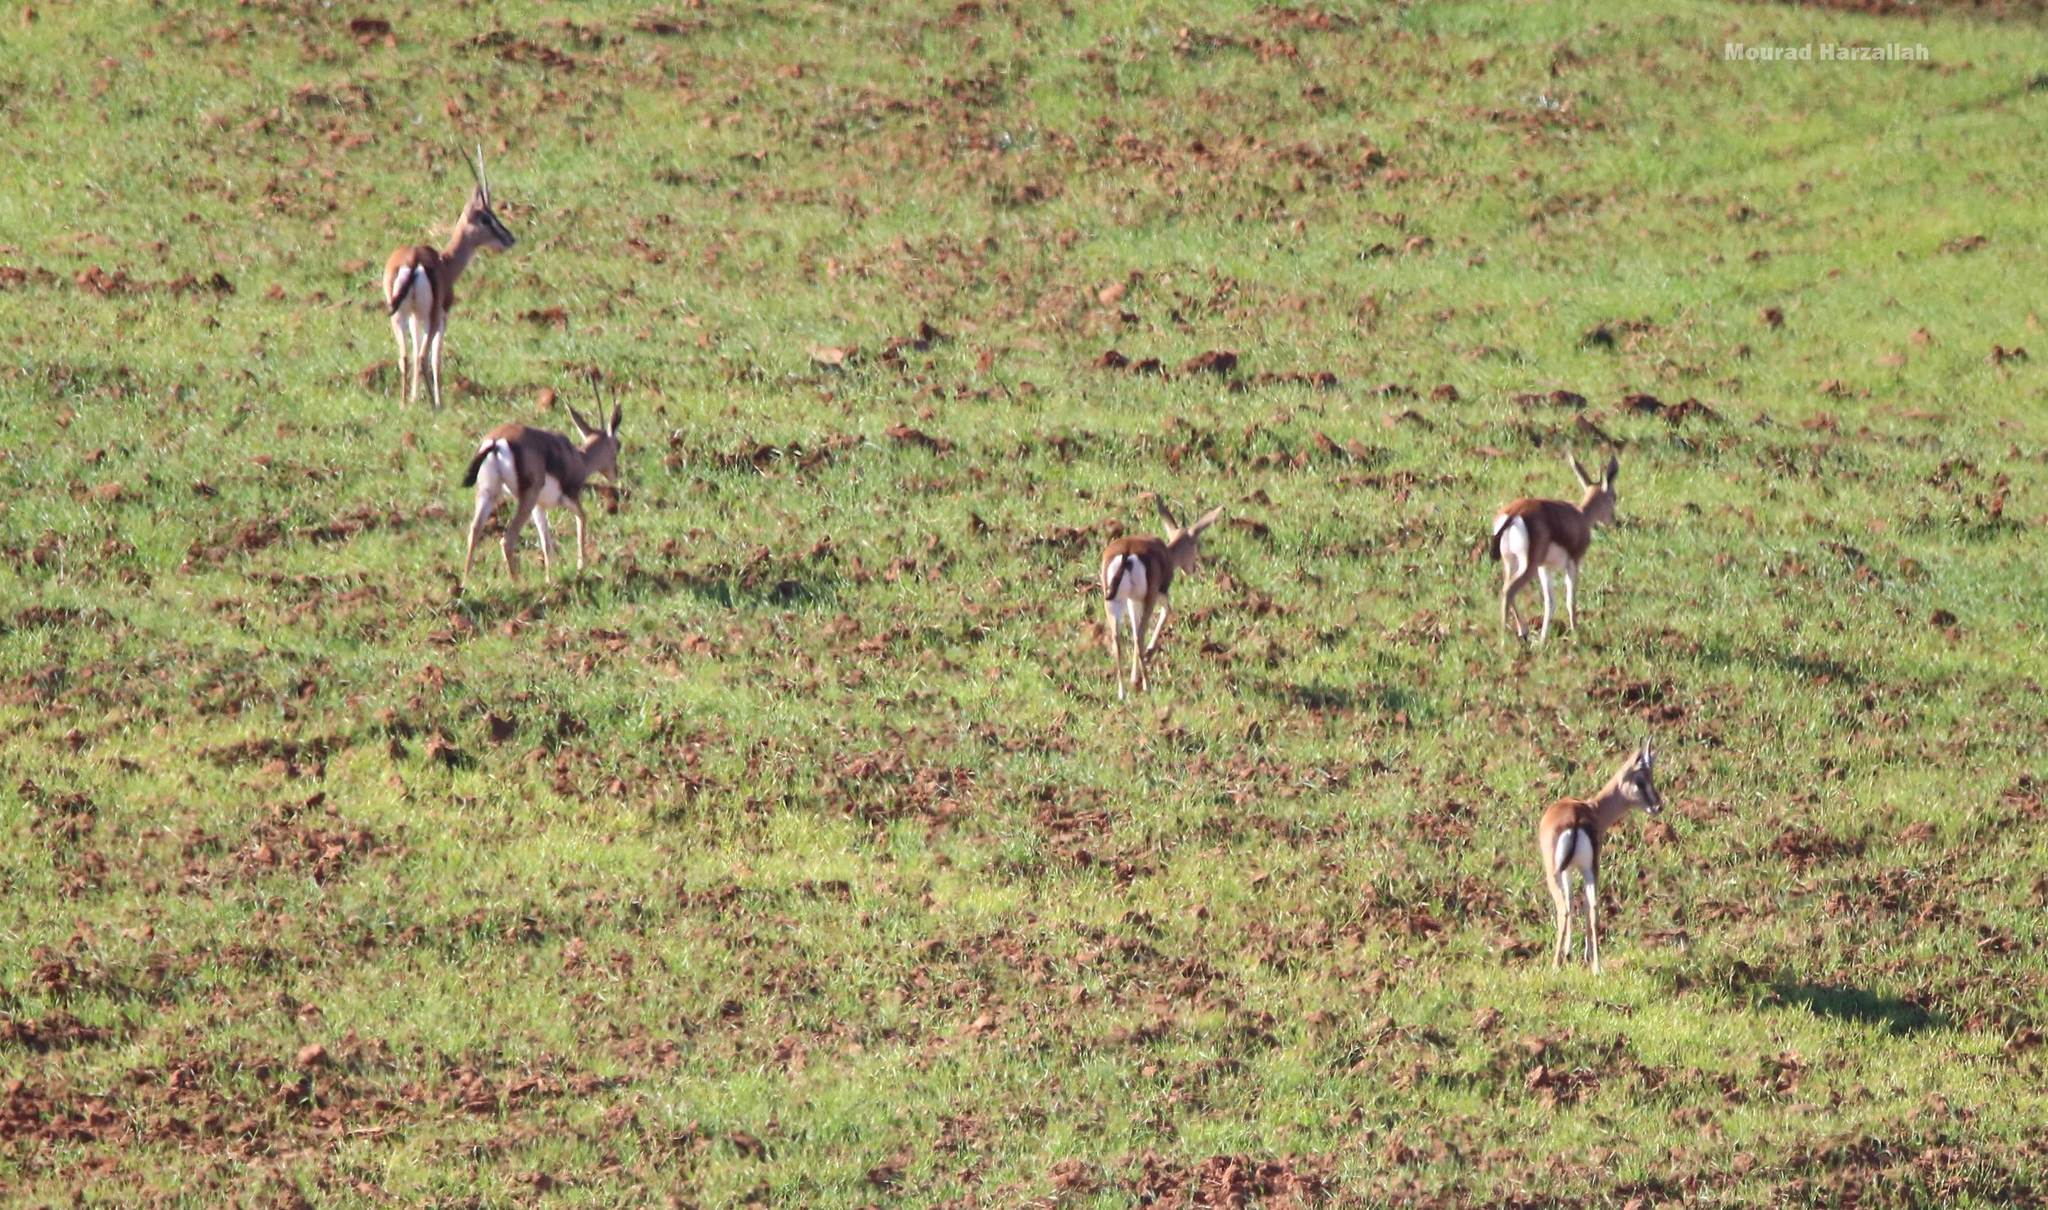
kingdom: Animalia
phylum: Chordata
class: Mammalia
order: Artiodactyla
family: Bovidae
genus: Gazella
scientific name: Gazella cuvieri
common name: Cuvier's gazelle
